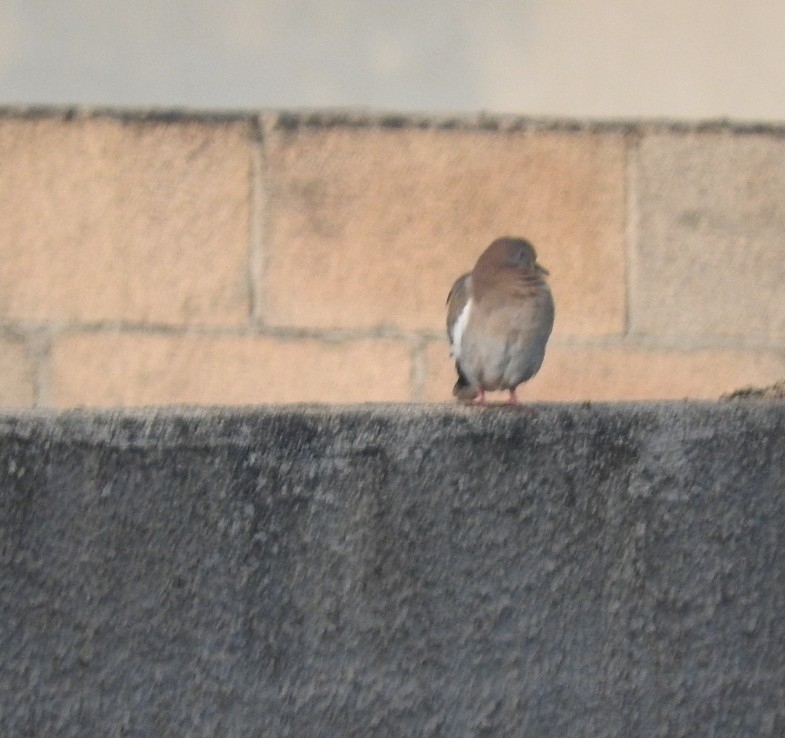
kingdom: Animalia
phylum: Chordata
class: Aves
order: Columbiformes
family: Columbidae
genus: Zenaida
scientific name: Zenaida asiatica
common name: White-winged dove
